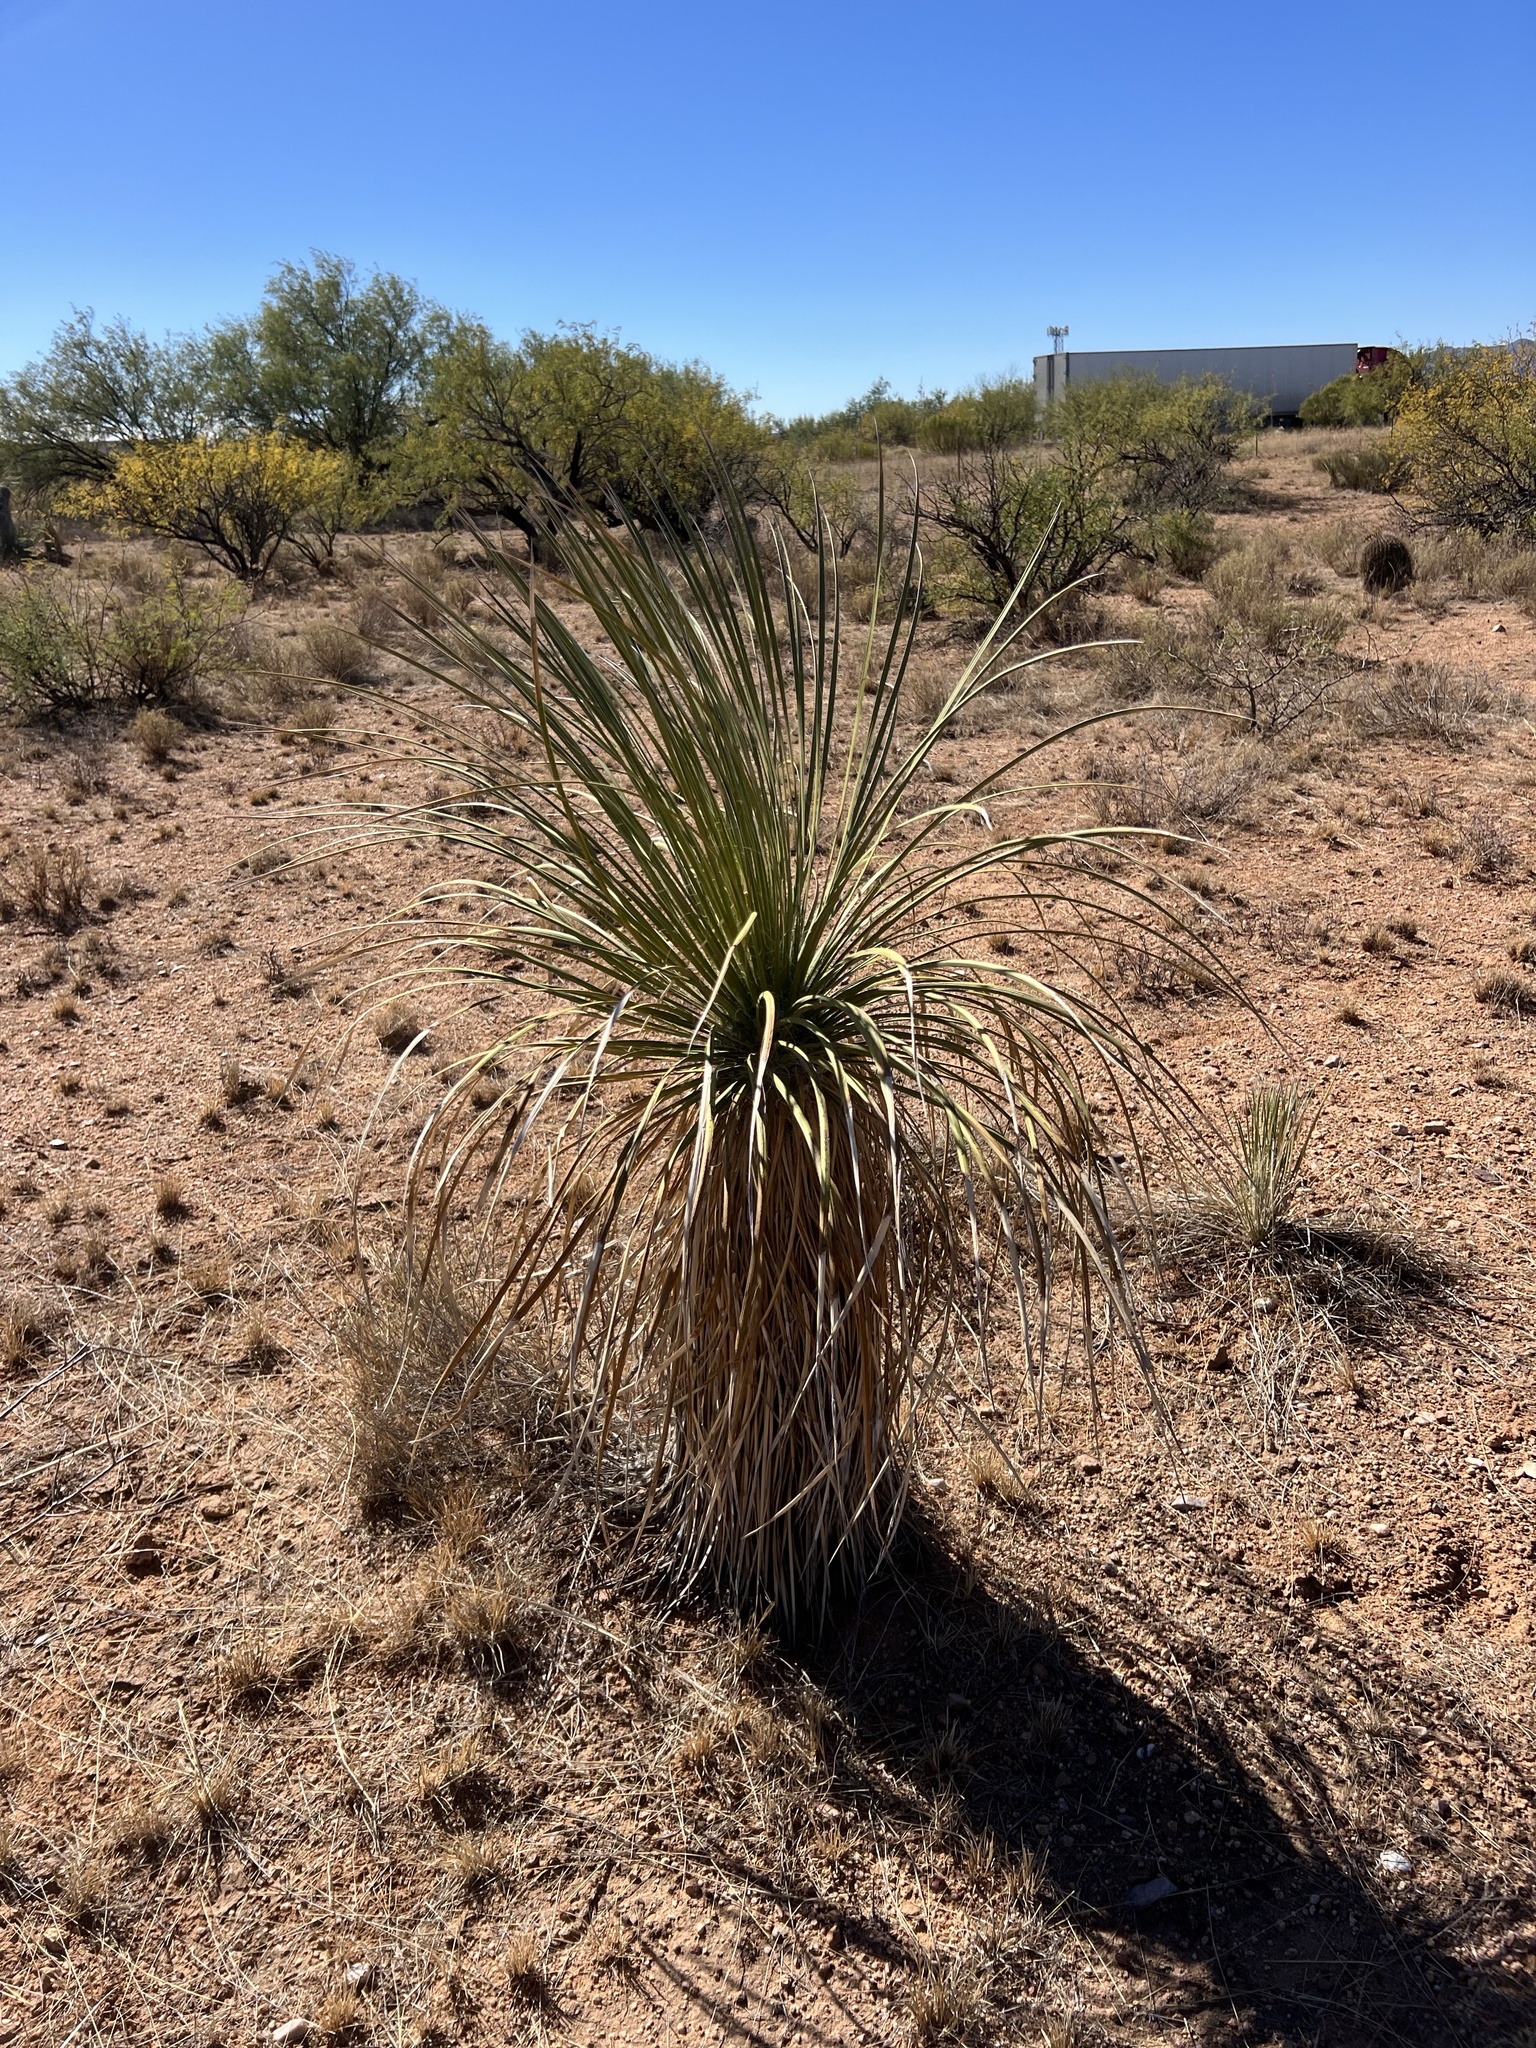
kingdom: Plantae
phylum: Tracheophyta
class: Liliopsida
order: Asparagales
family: Asparagaceae
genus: Yucca
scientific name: Yucca elata
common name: Palmella
